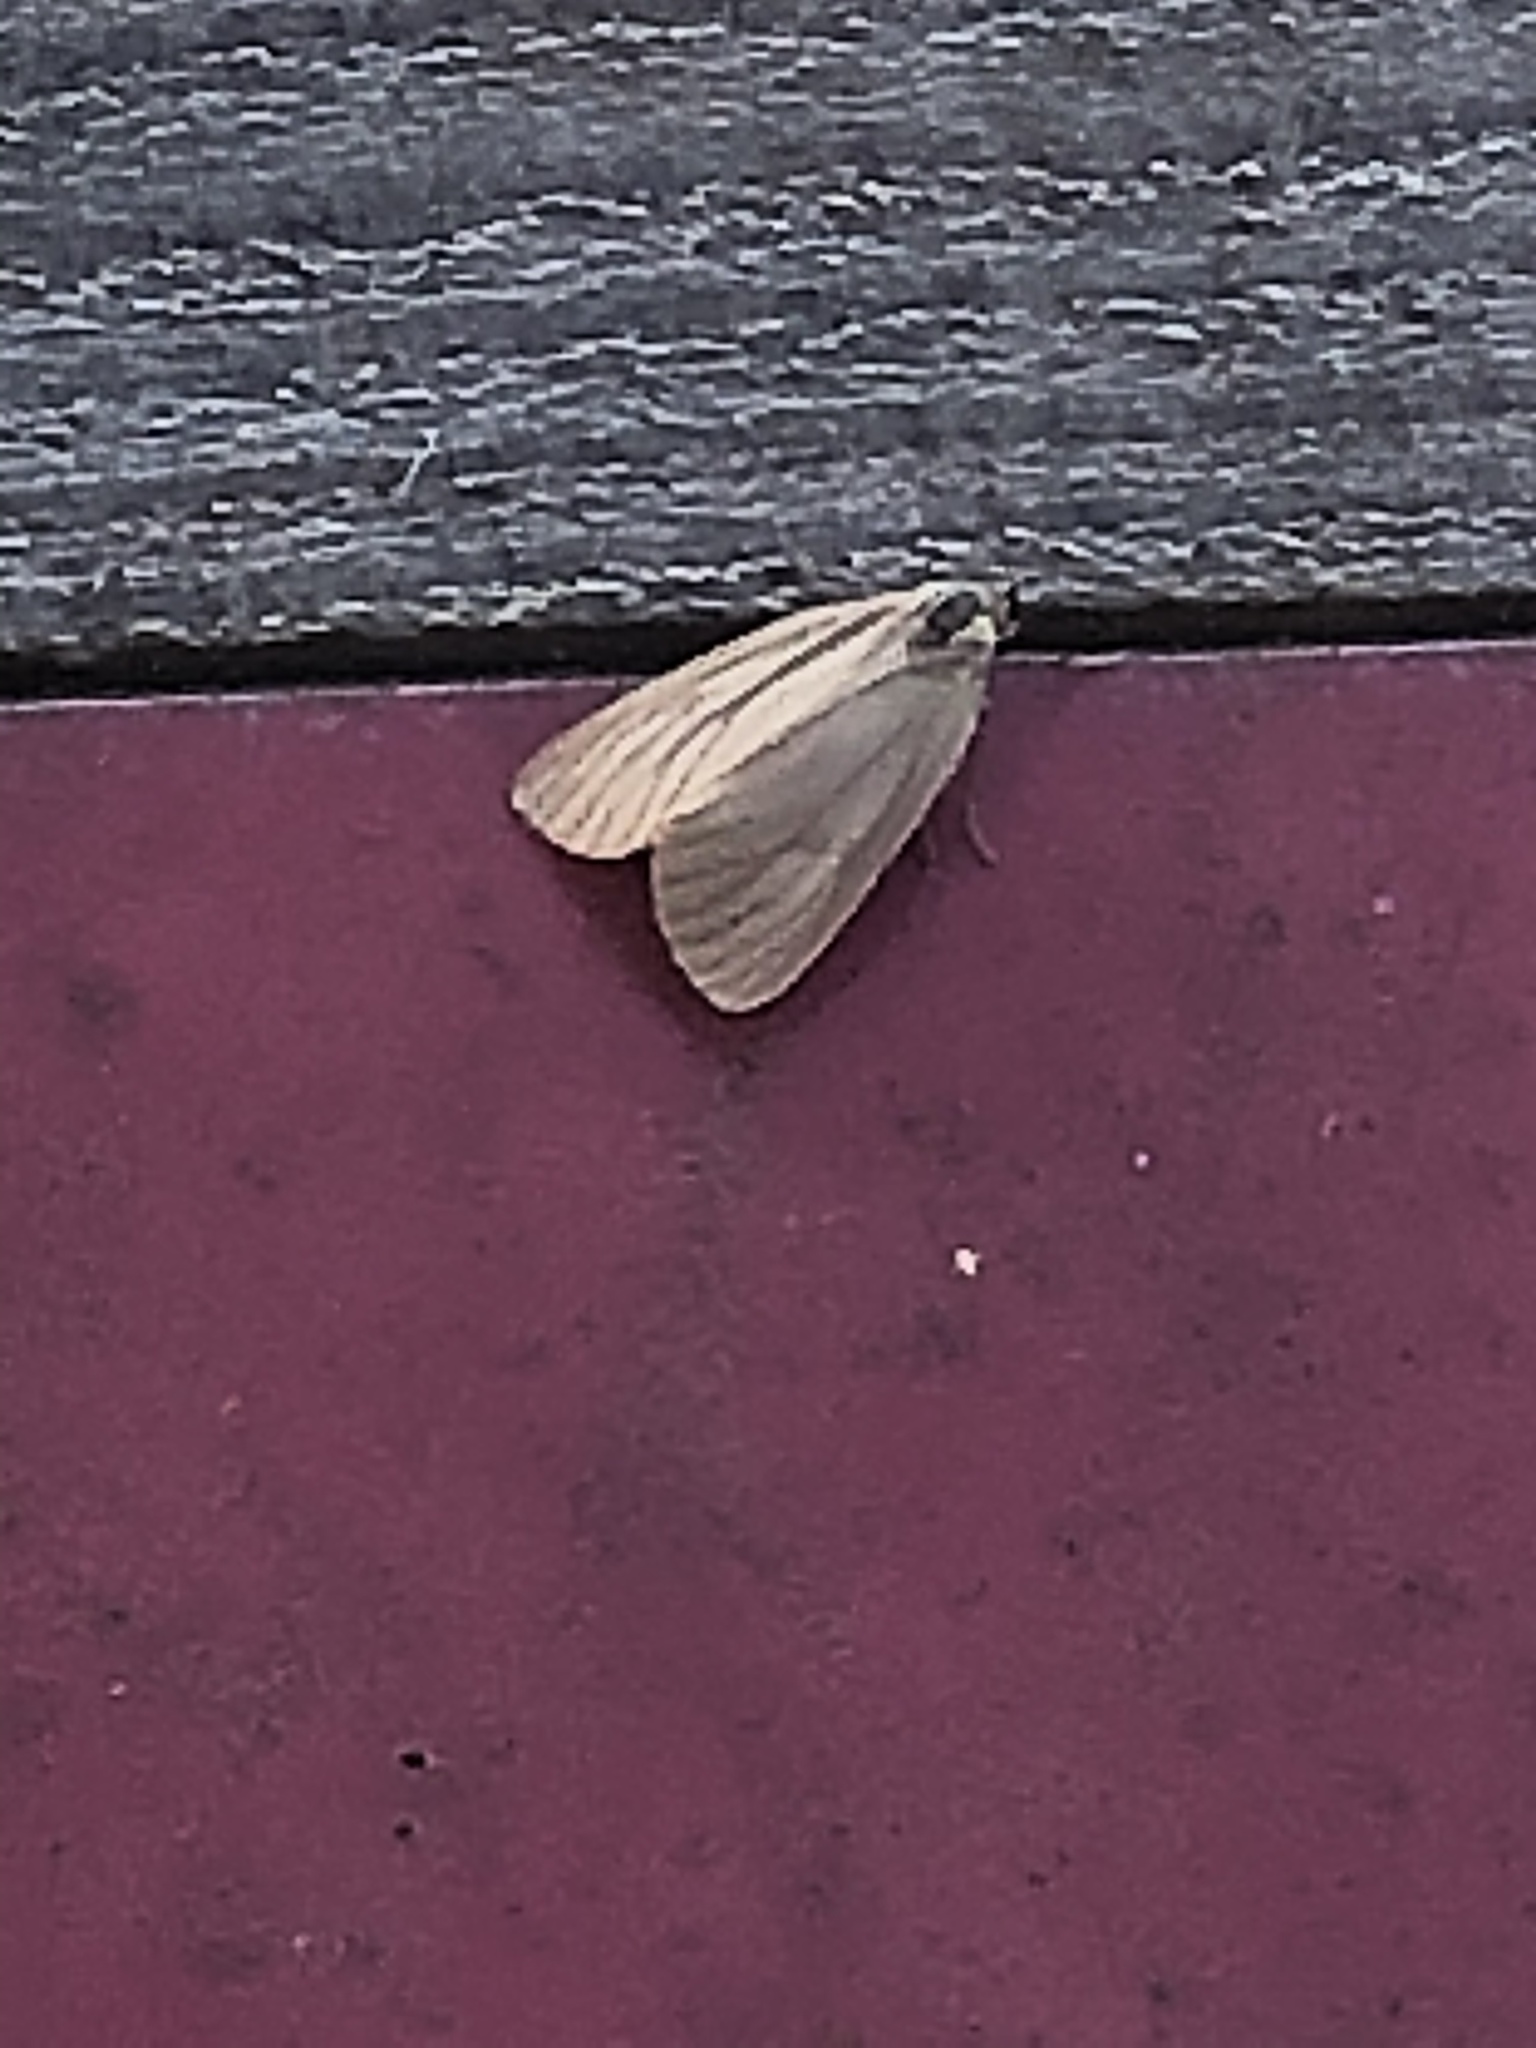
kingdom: Animalia
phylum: Arthropoda
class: Insecta
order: Lepidoptera
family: Notodontidae
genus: Phryganidia
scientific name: Phryganidia californica
